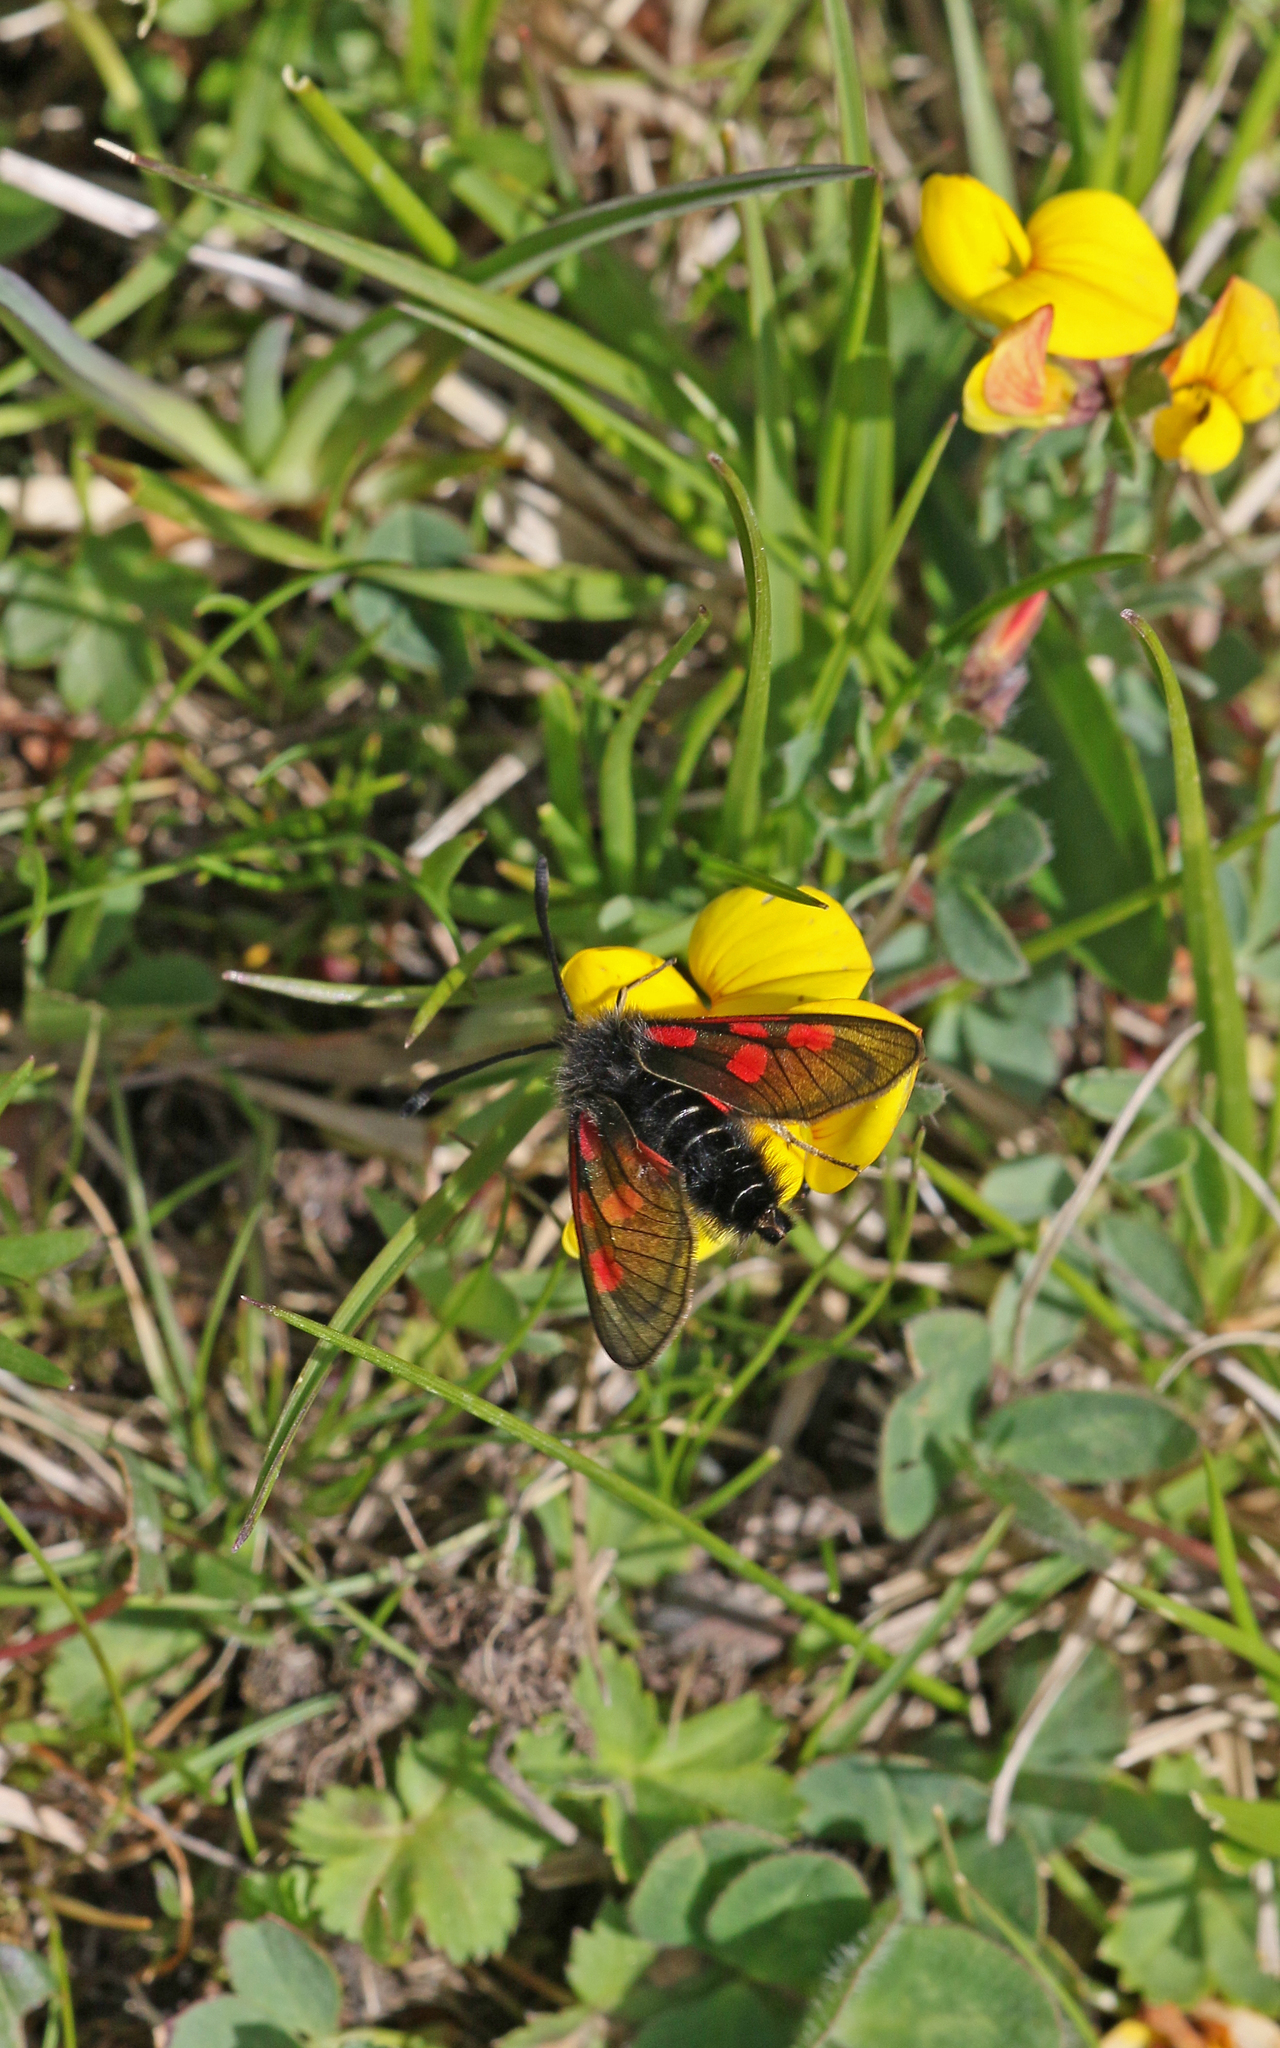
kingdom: Animalia
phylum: Arthropoda
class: Insecta
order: Lepidoptera
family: Zygaenidae
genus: Zygaena
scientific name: Zygaena exulans
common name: Scotch burnet
